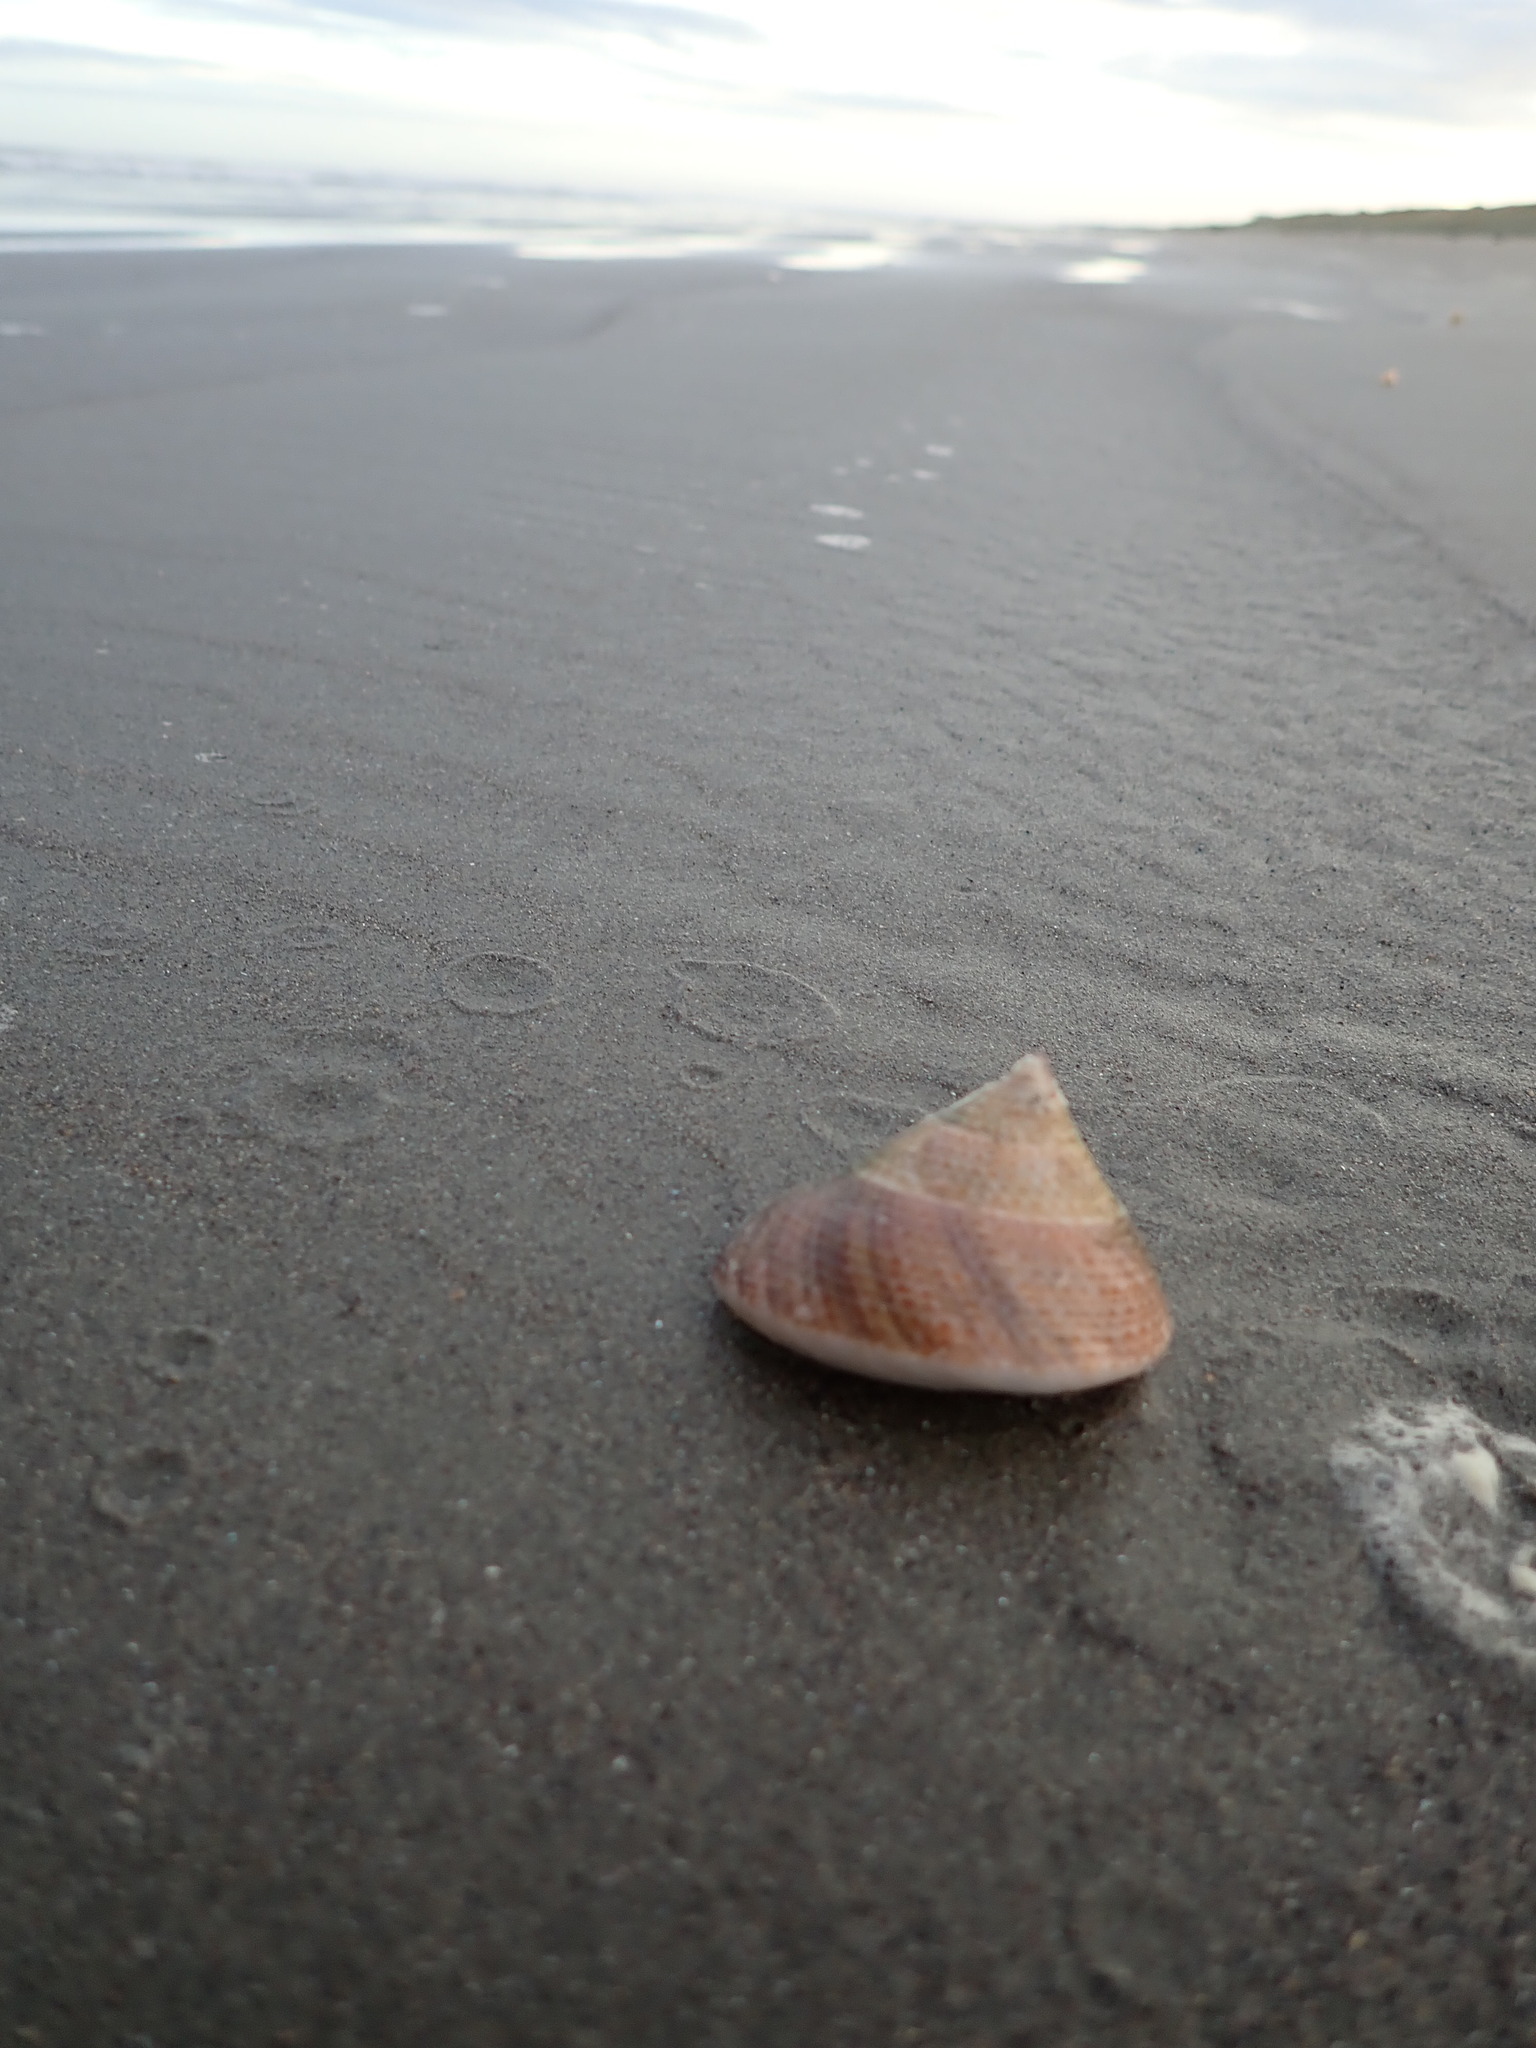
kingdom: Animalia
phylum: Mollusca
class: Gastropoda
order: Trochida
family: Calliostomatidae
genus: Maurea
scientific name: Maurea selecta
